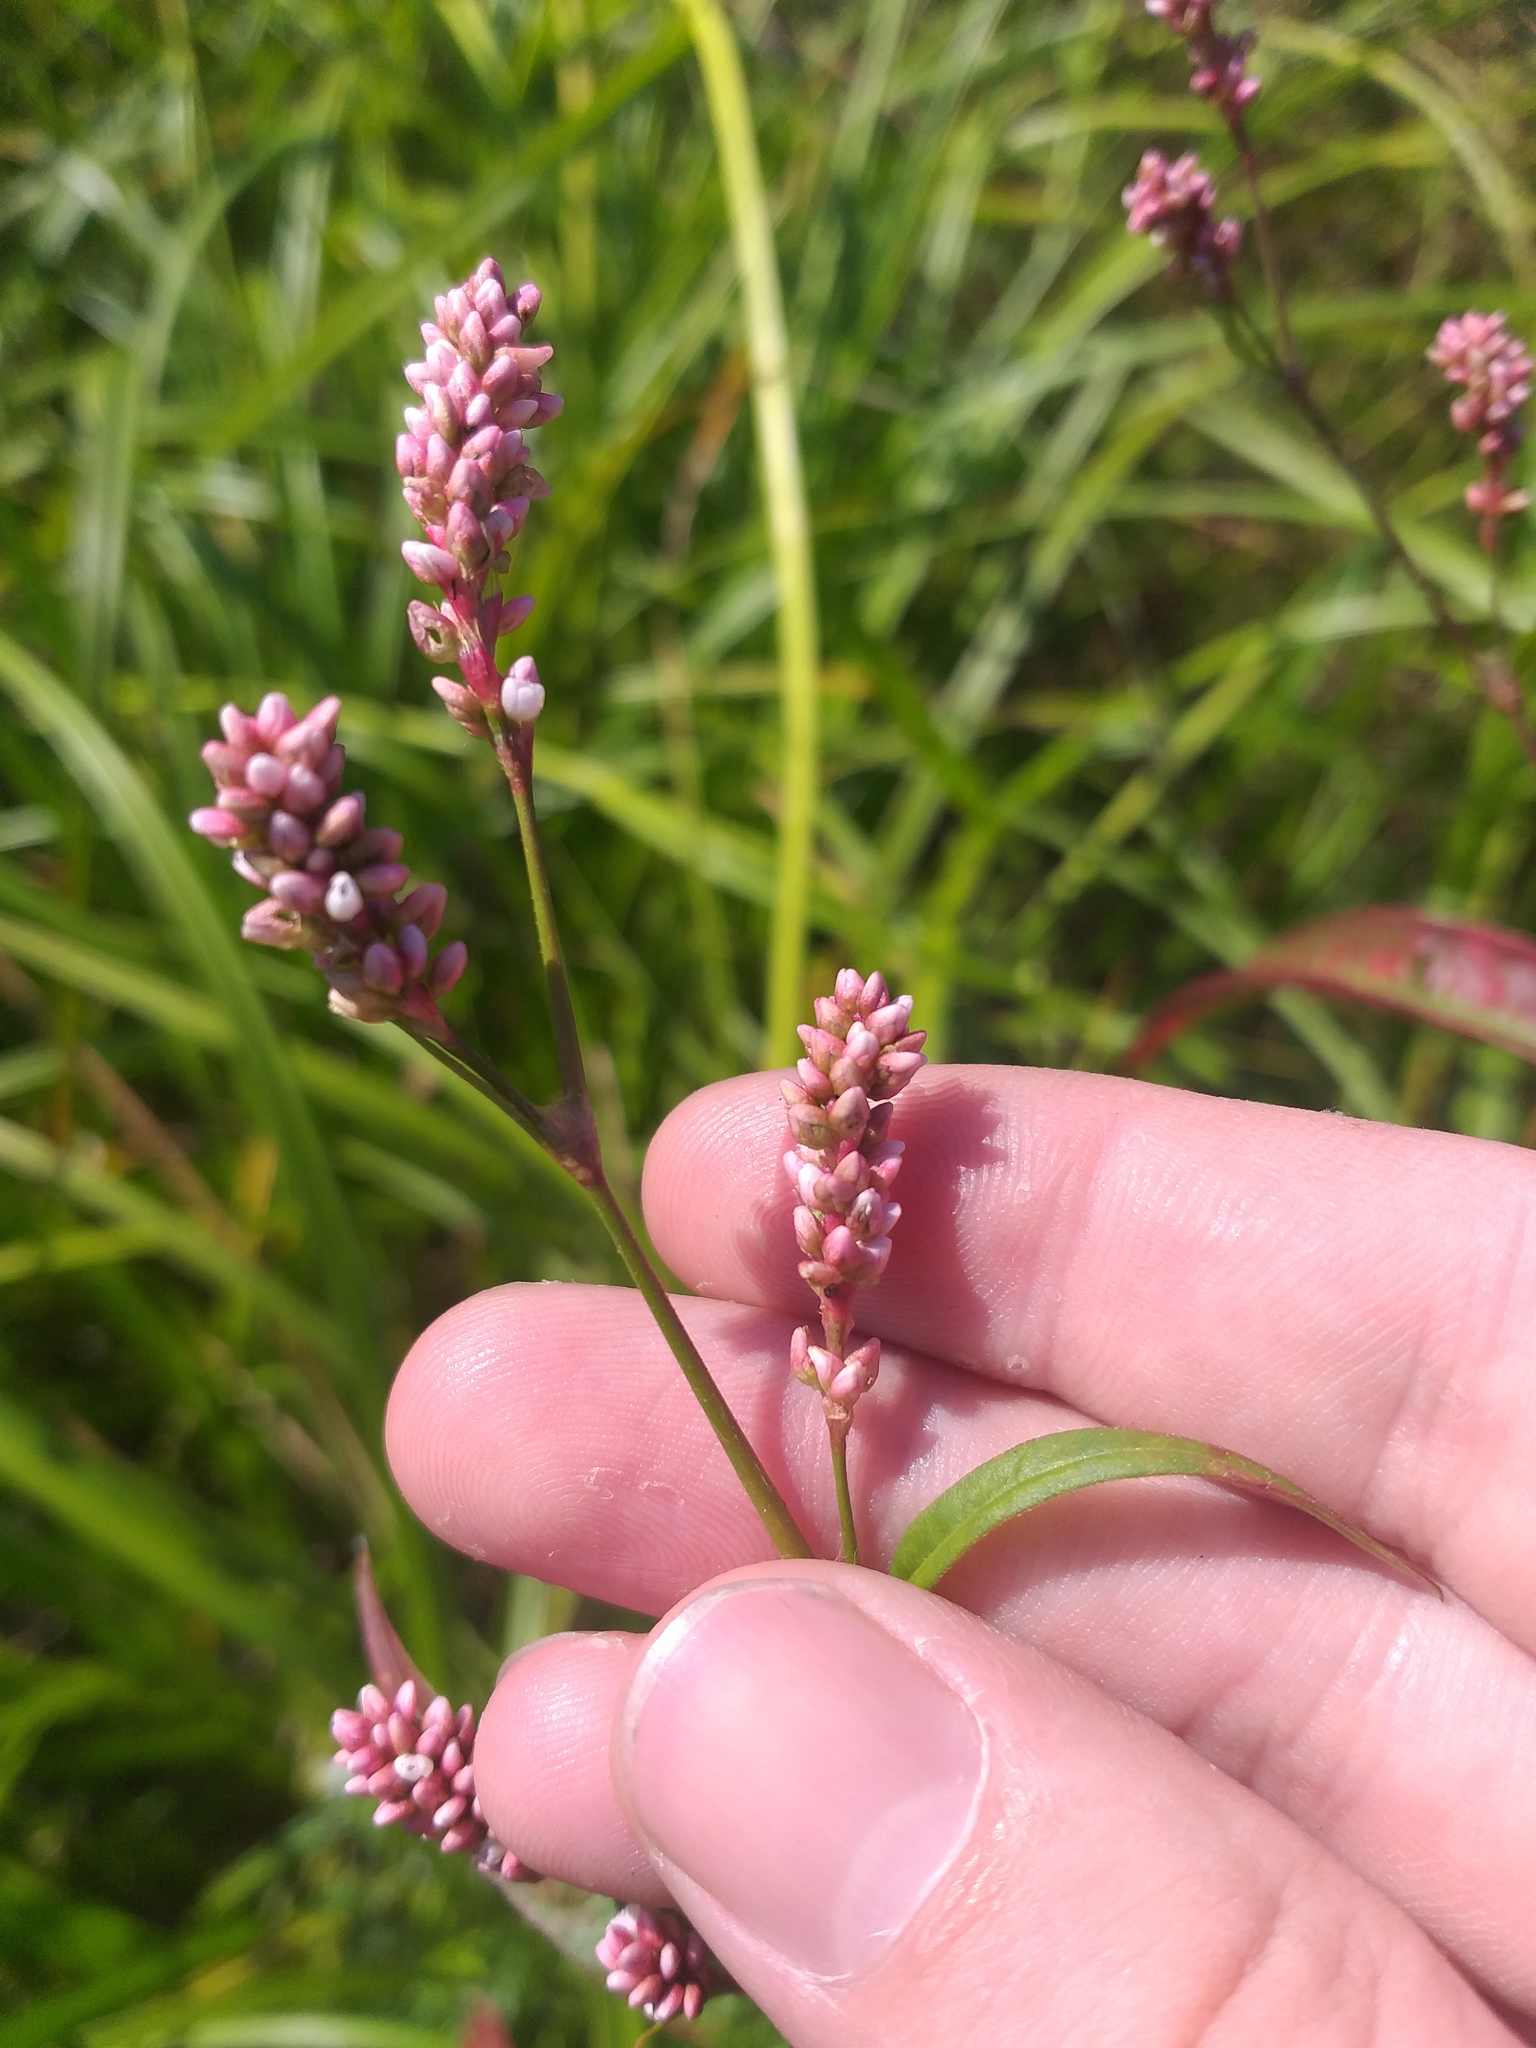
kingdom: Plantae
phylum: Tracheophyta
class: Magnoliopsida
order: Caryophyllales
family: Polygonaceae
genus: Persicaria
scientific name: Persicaria maculosa
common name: Redshank
